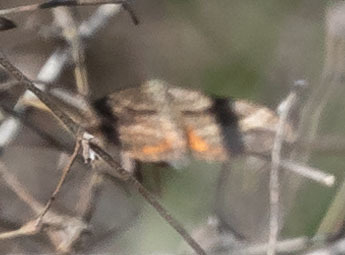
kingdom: Animalia
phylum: Arthropoda
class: Insecta
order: Lepidoptera
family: Geometridae
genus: Epirrhoe
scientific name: Epirrhoe plebeculata
